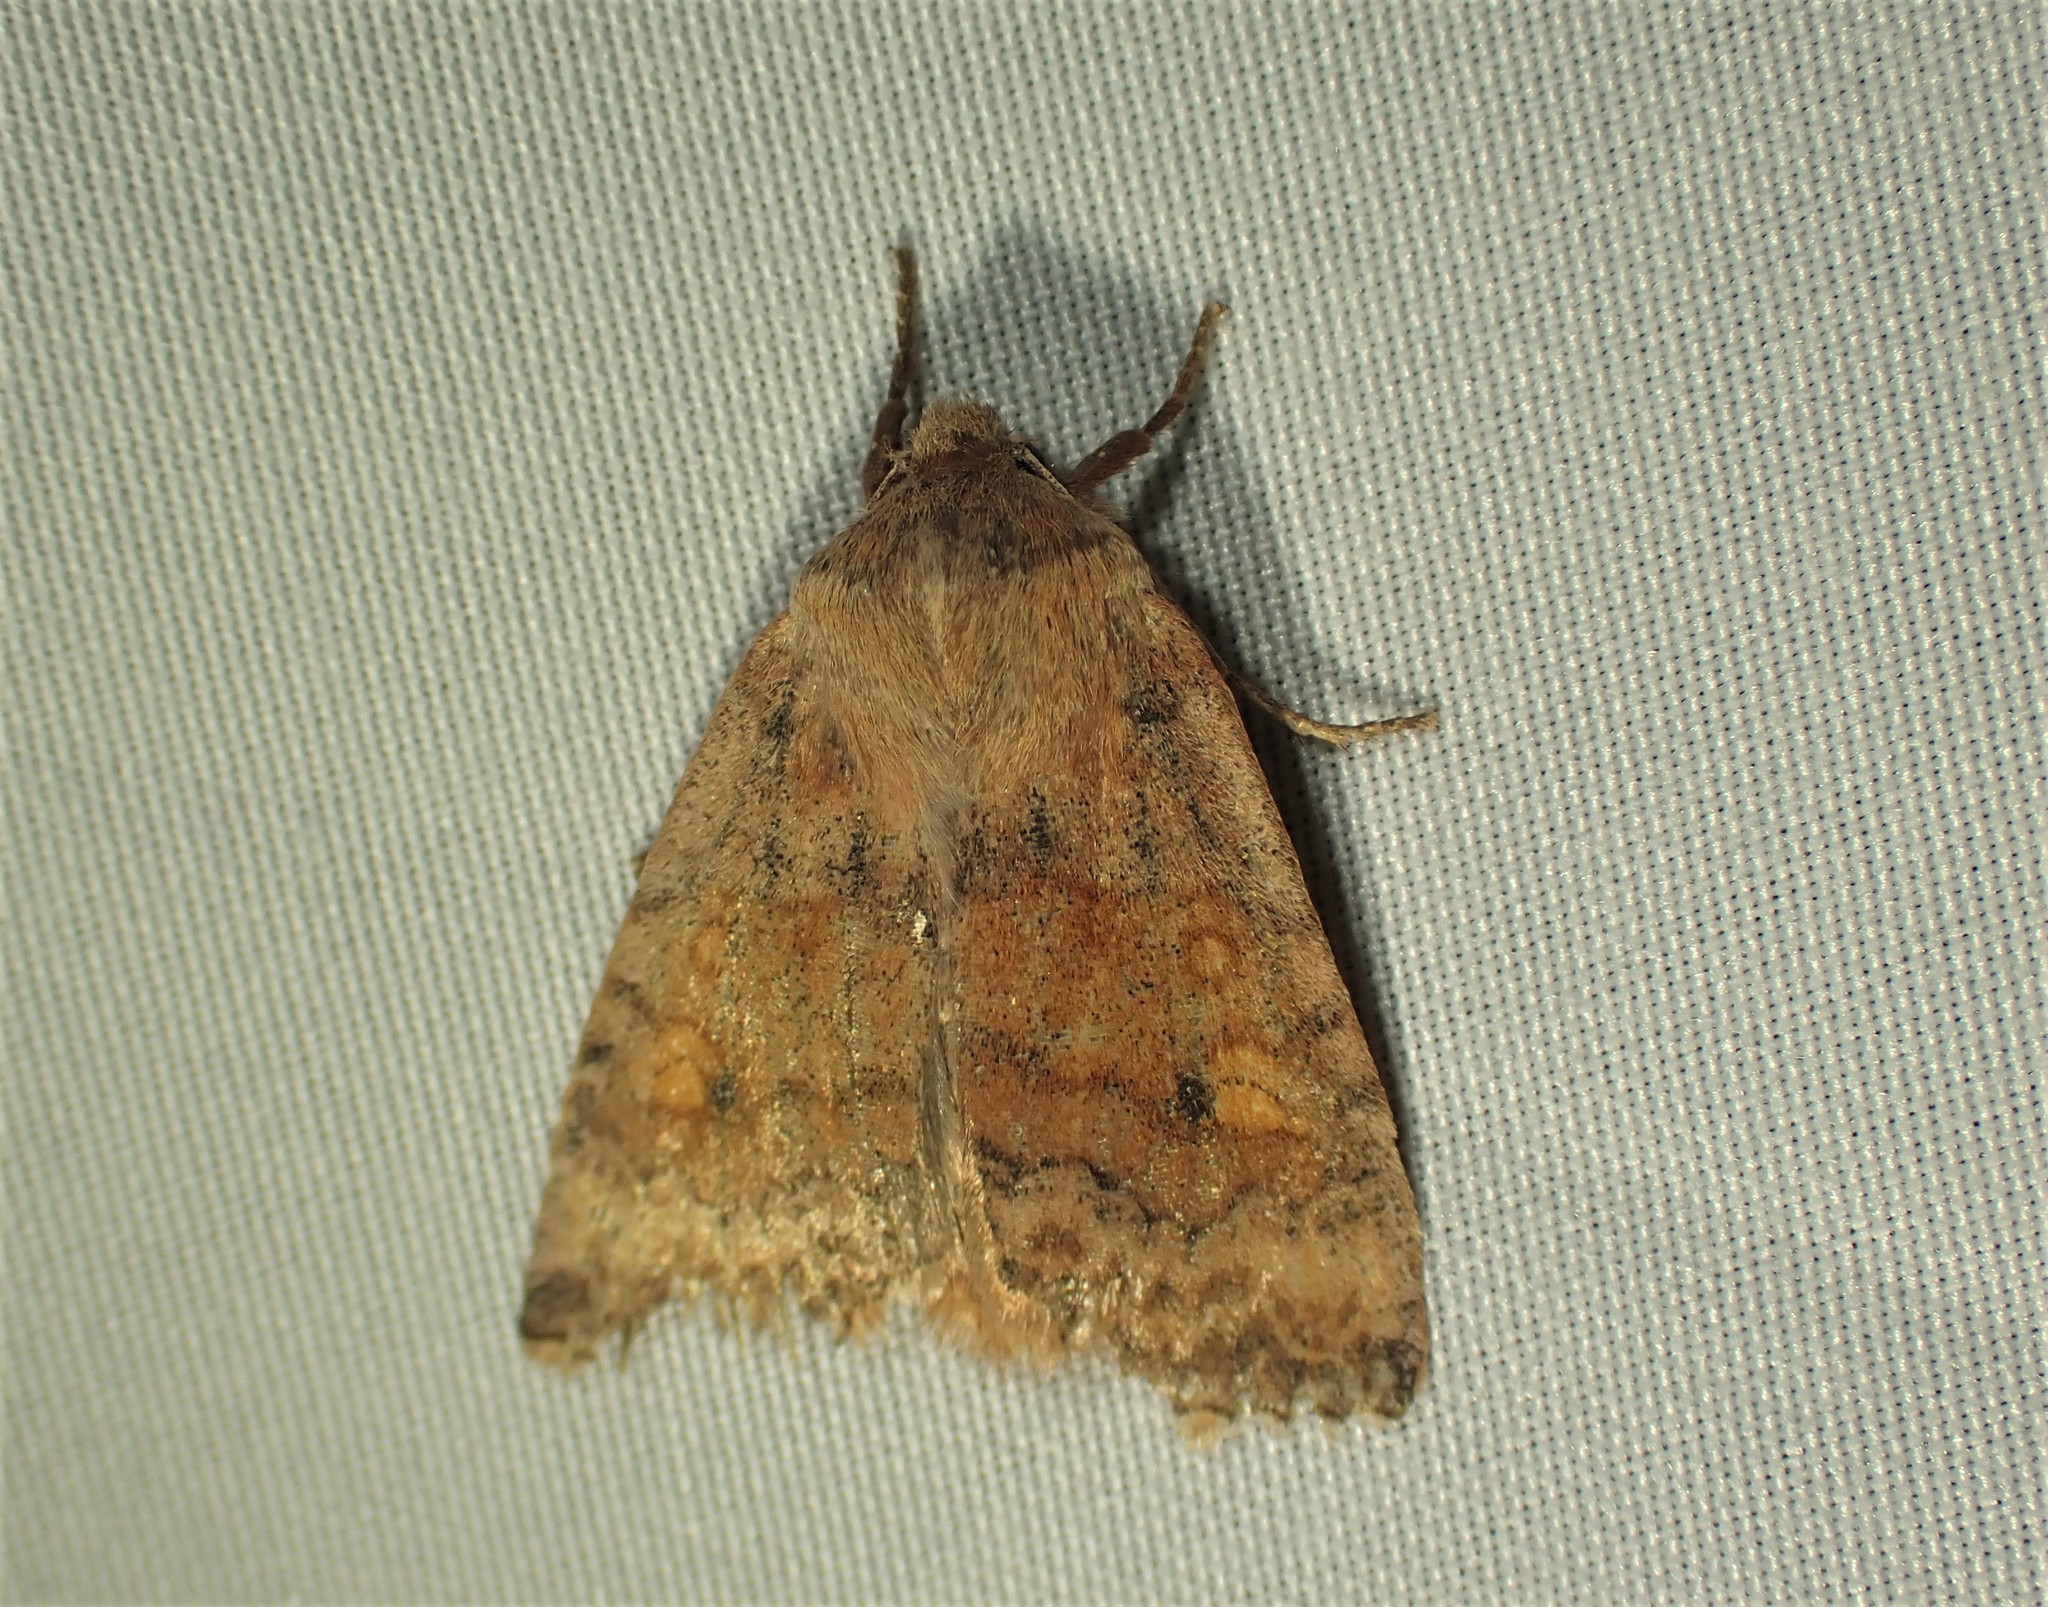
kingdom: Animalia
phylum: Arthropoda
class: Insecta
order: Lepidoptera
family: Noctuidae
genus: Eupsilia
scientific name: Eupsilia tristigmata
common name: Three-spotted sallow
